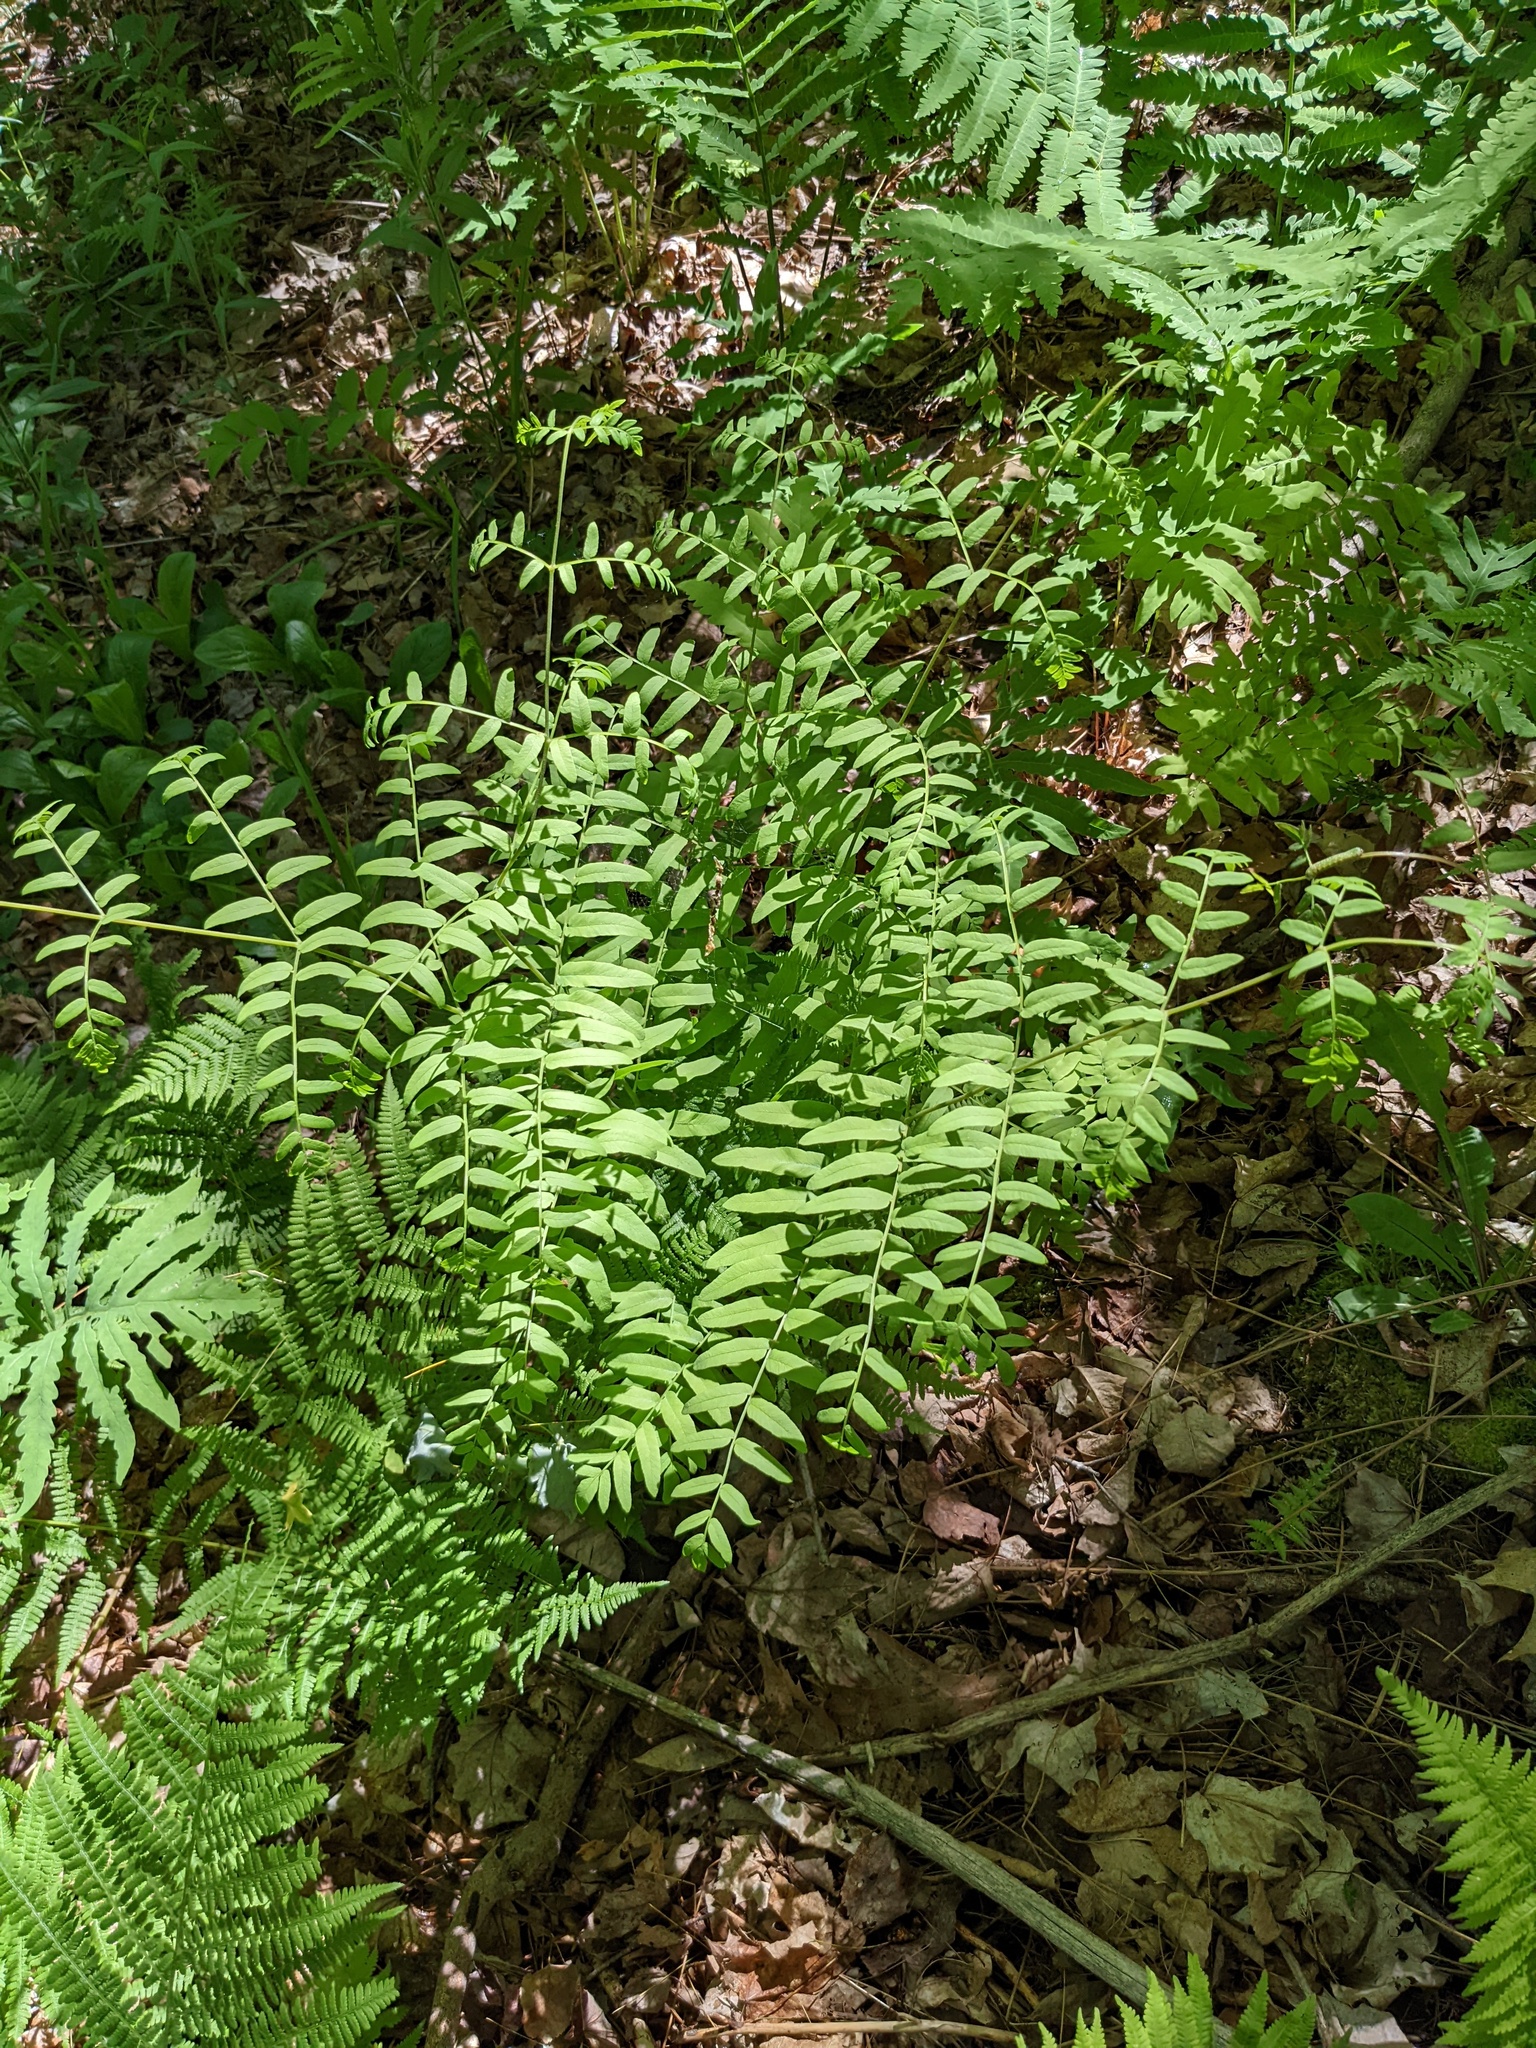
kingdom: Plantae
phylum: Tracheophyta
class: Polypodiopsida
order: Osmundales
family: Osmundaceae
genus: Osmunda
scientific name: Osmunda spectabilis
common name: American royal fern
